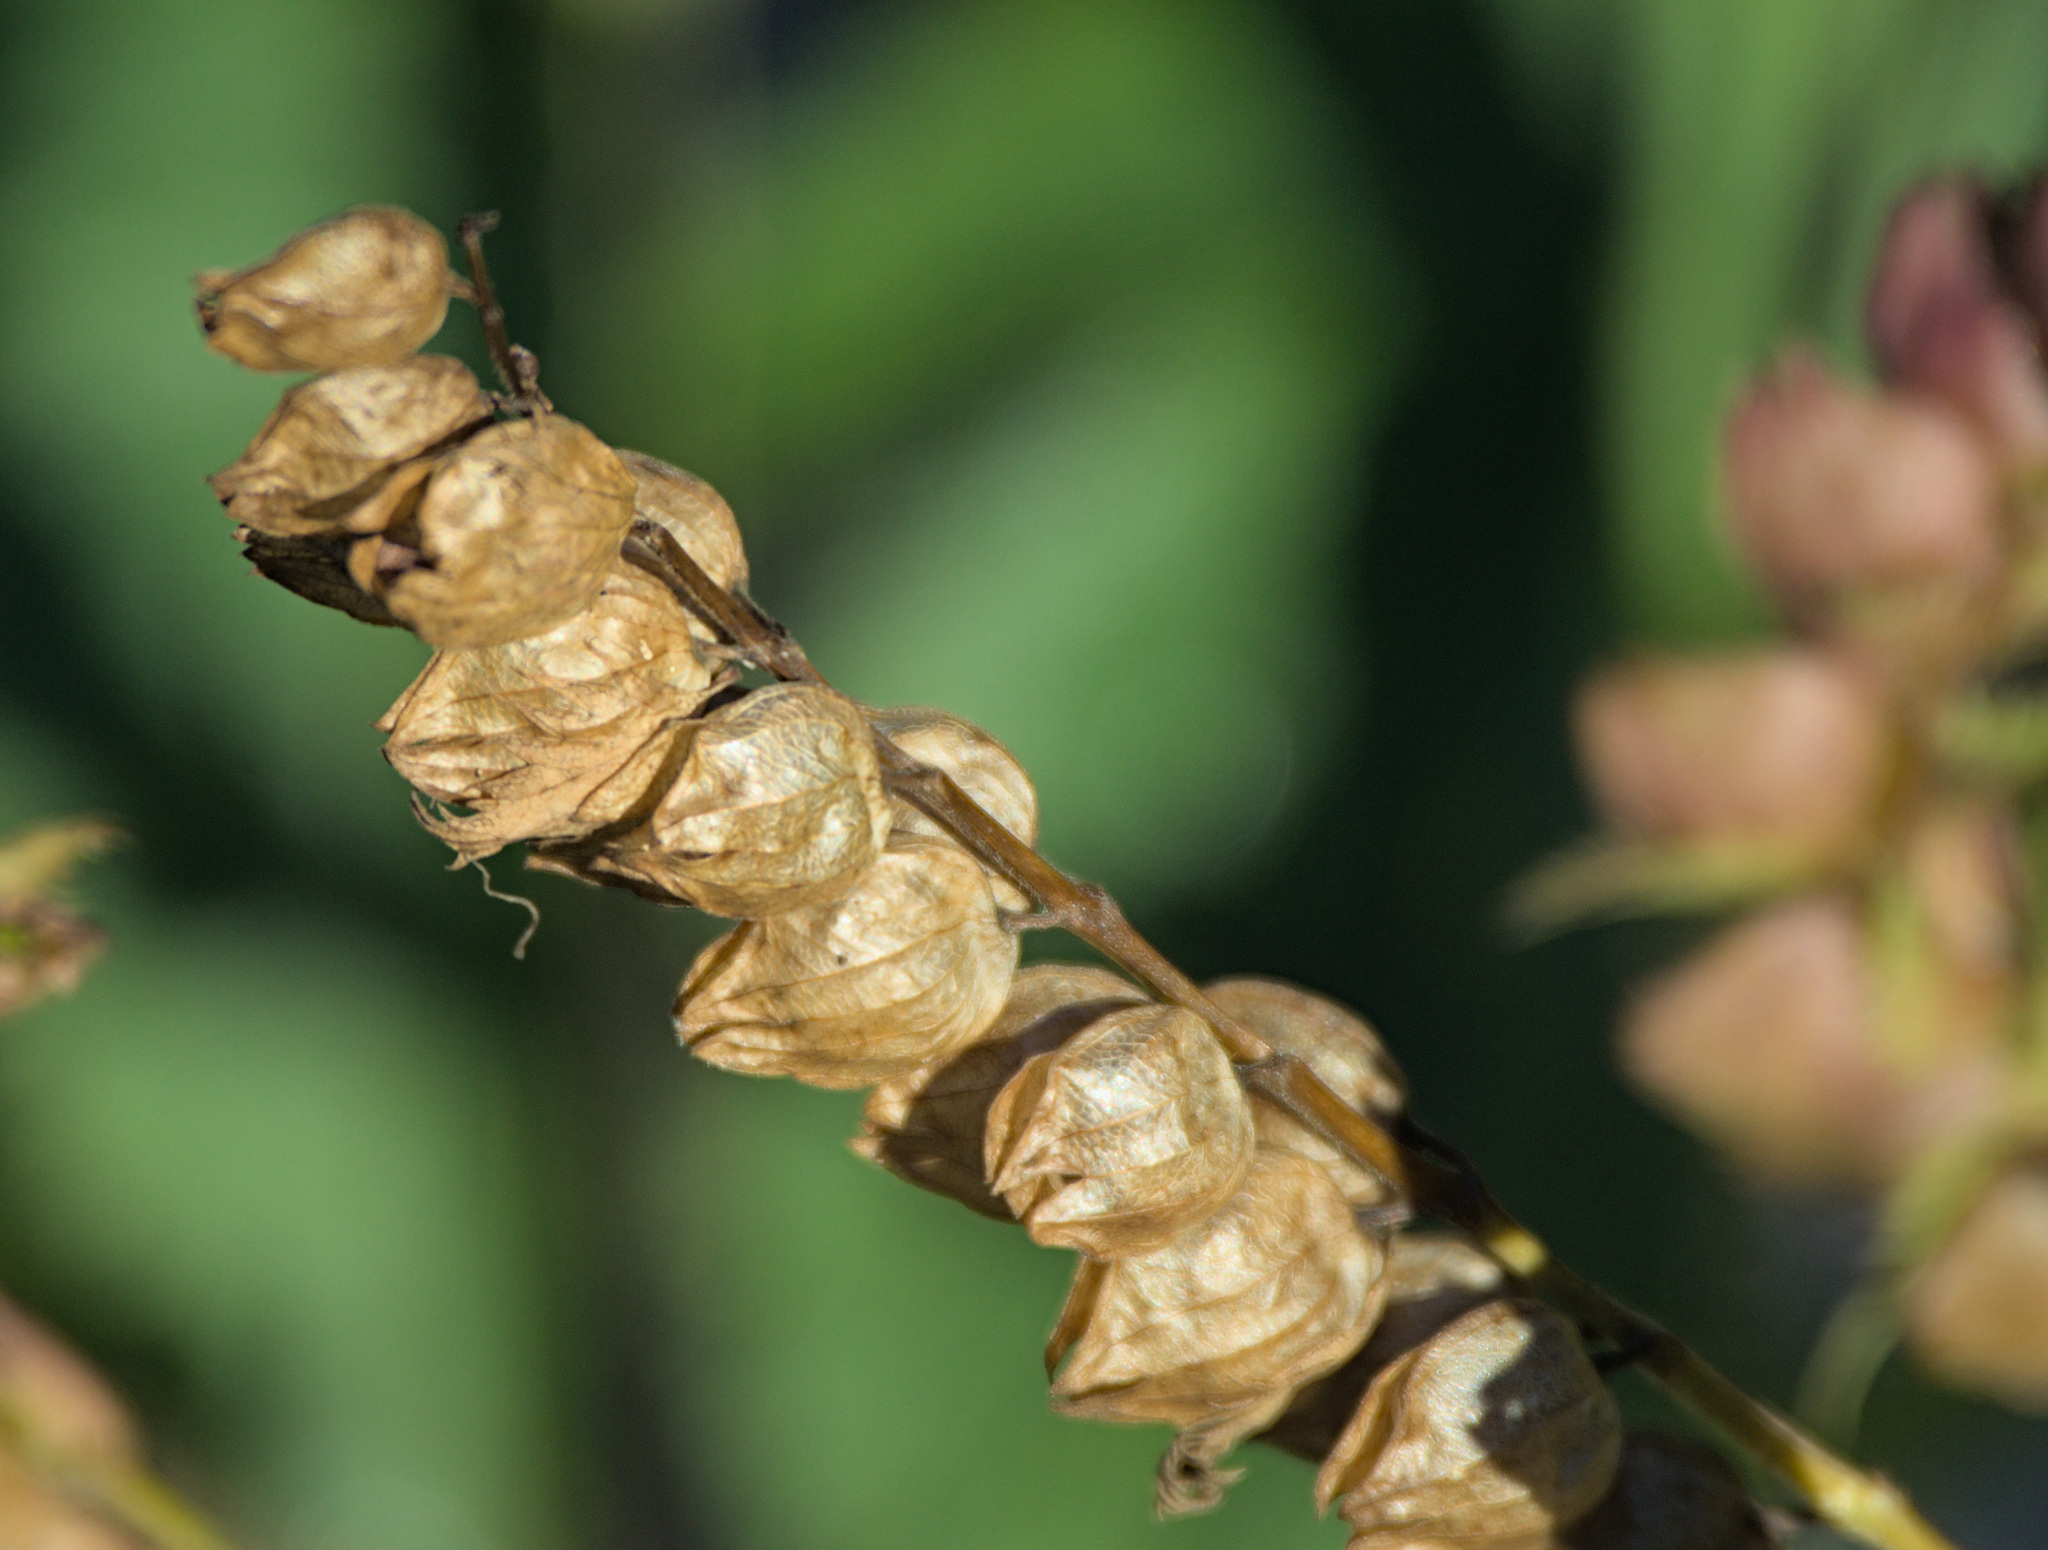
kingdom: Plantae
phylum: Tracheophyta
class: Magnoliopsida
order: Lamiales
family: Orobanchaceae
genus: Rhinanthus
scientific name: Rhinanthus serotinus
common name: Late-flowering yellow rattle
